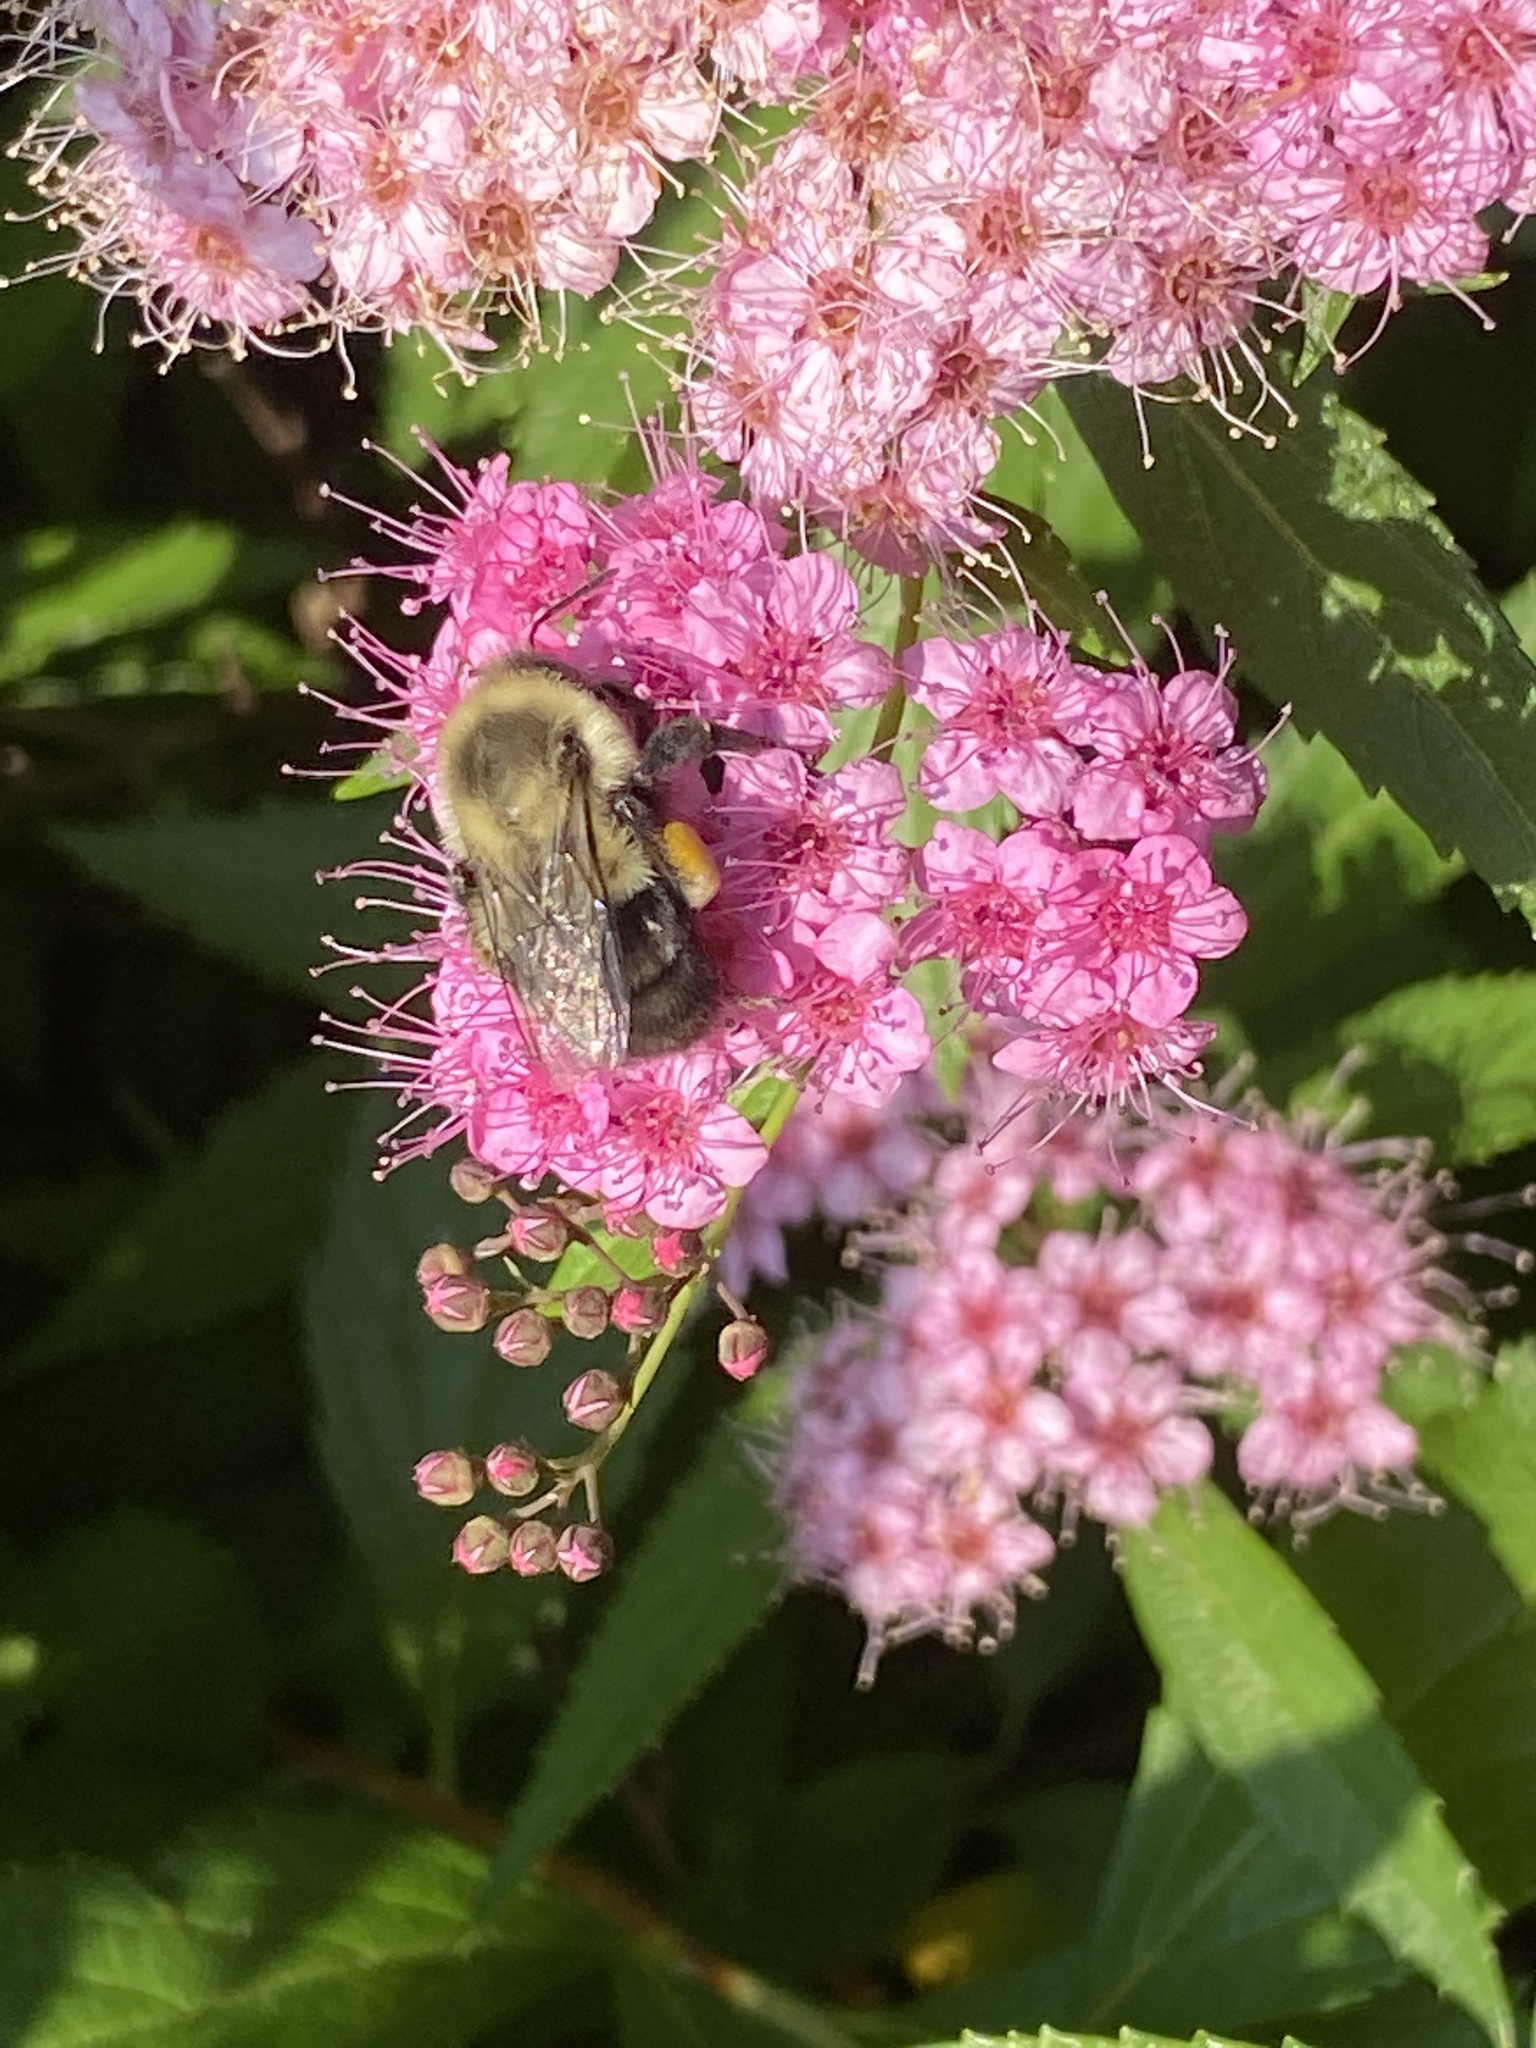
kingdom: Animalia
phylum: Arthropoda
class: Insecta
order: Hymenoptera
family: Apidae
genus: Bombus
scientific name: Bombus impatiens
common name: Common eastern bumble bee
